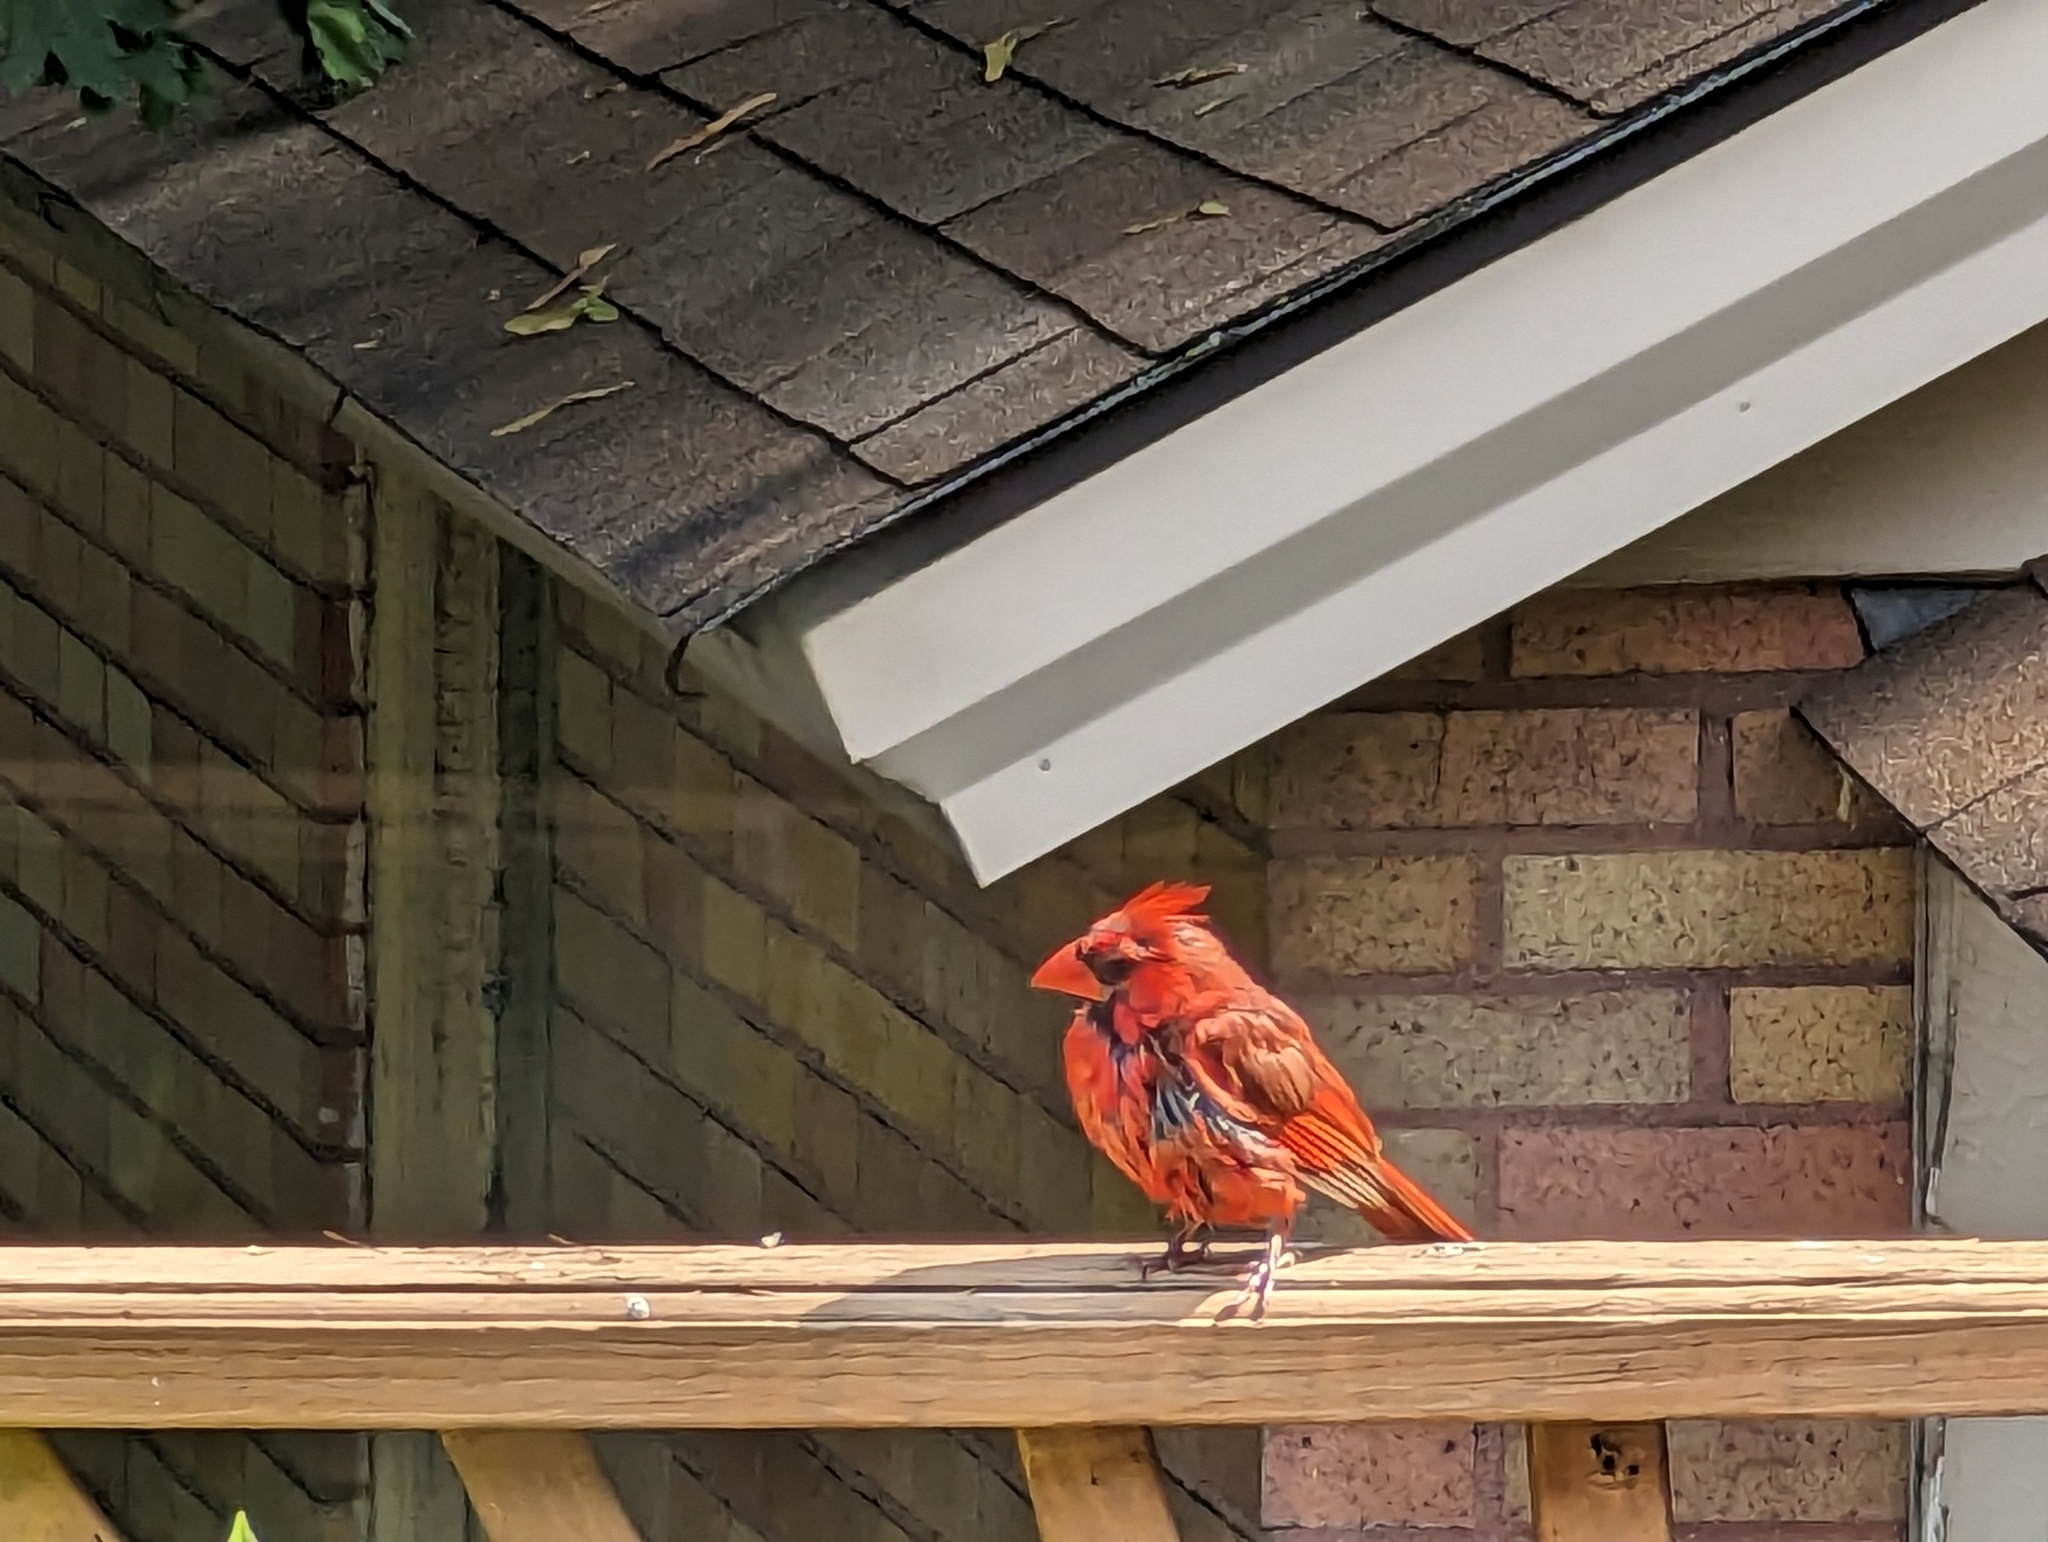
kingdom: Animalia
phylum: Chordata
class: Aves
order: Passeriformes
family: Cardinalidae
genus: Cardinalis
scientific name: Cardinalis cardinalis
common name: Northern cardinal
